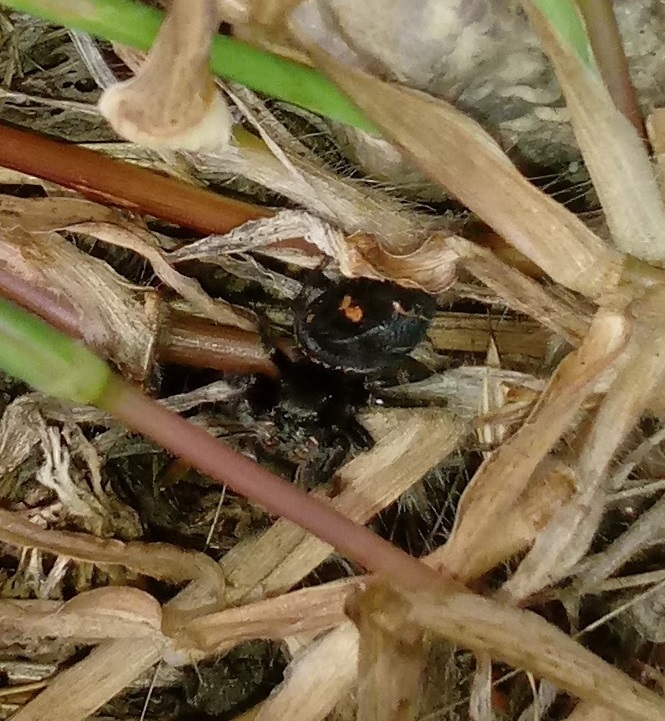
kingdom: Animalia
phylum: Arthropoda
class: Arachnida
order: Araneae
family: Salticidae
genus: Phidippus
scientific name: Phidippus audax
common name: Bold jumper
